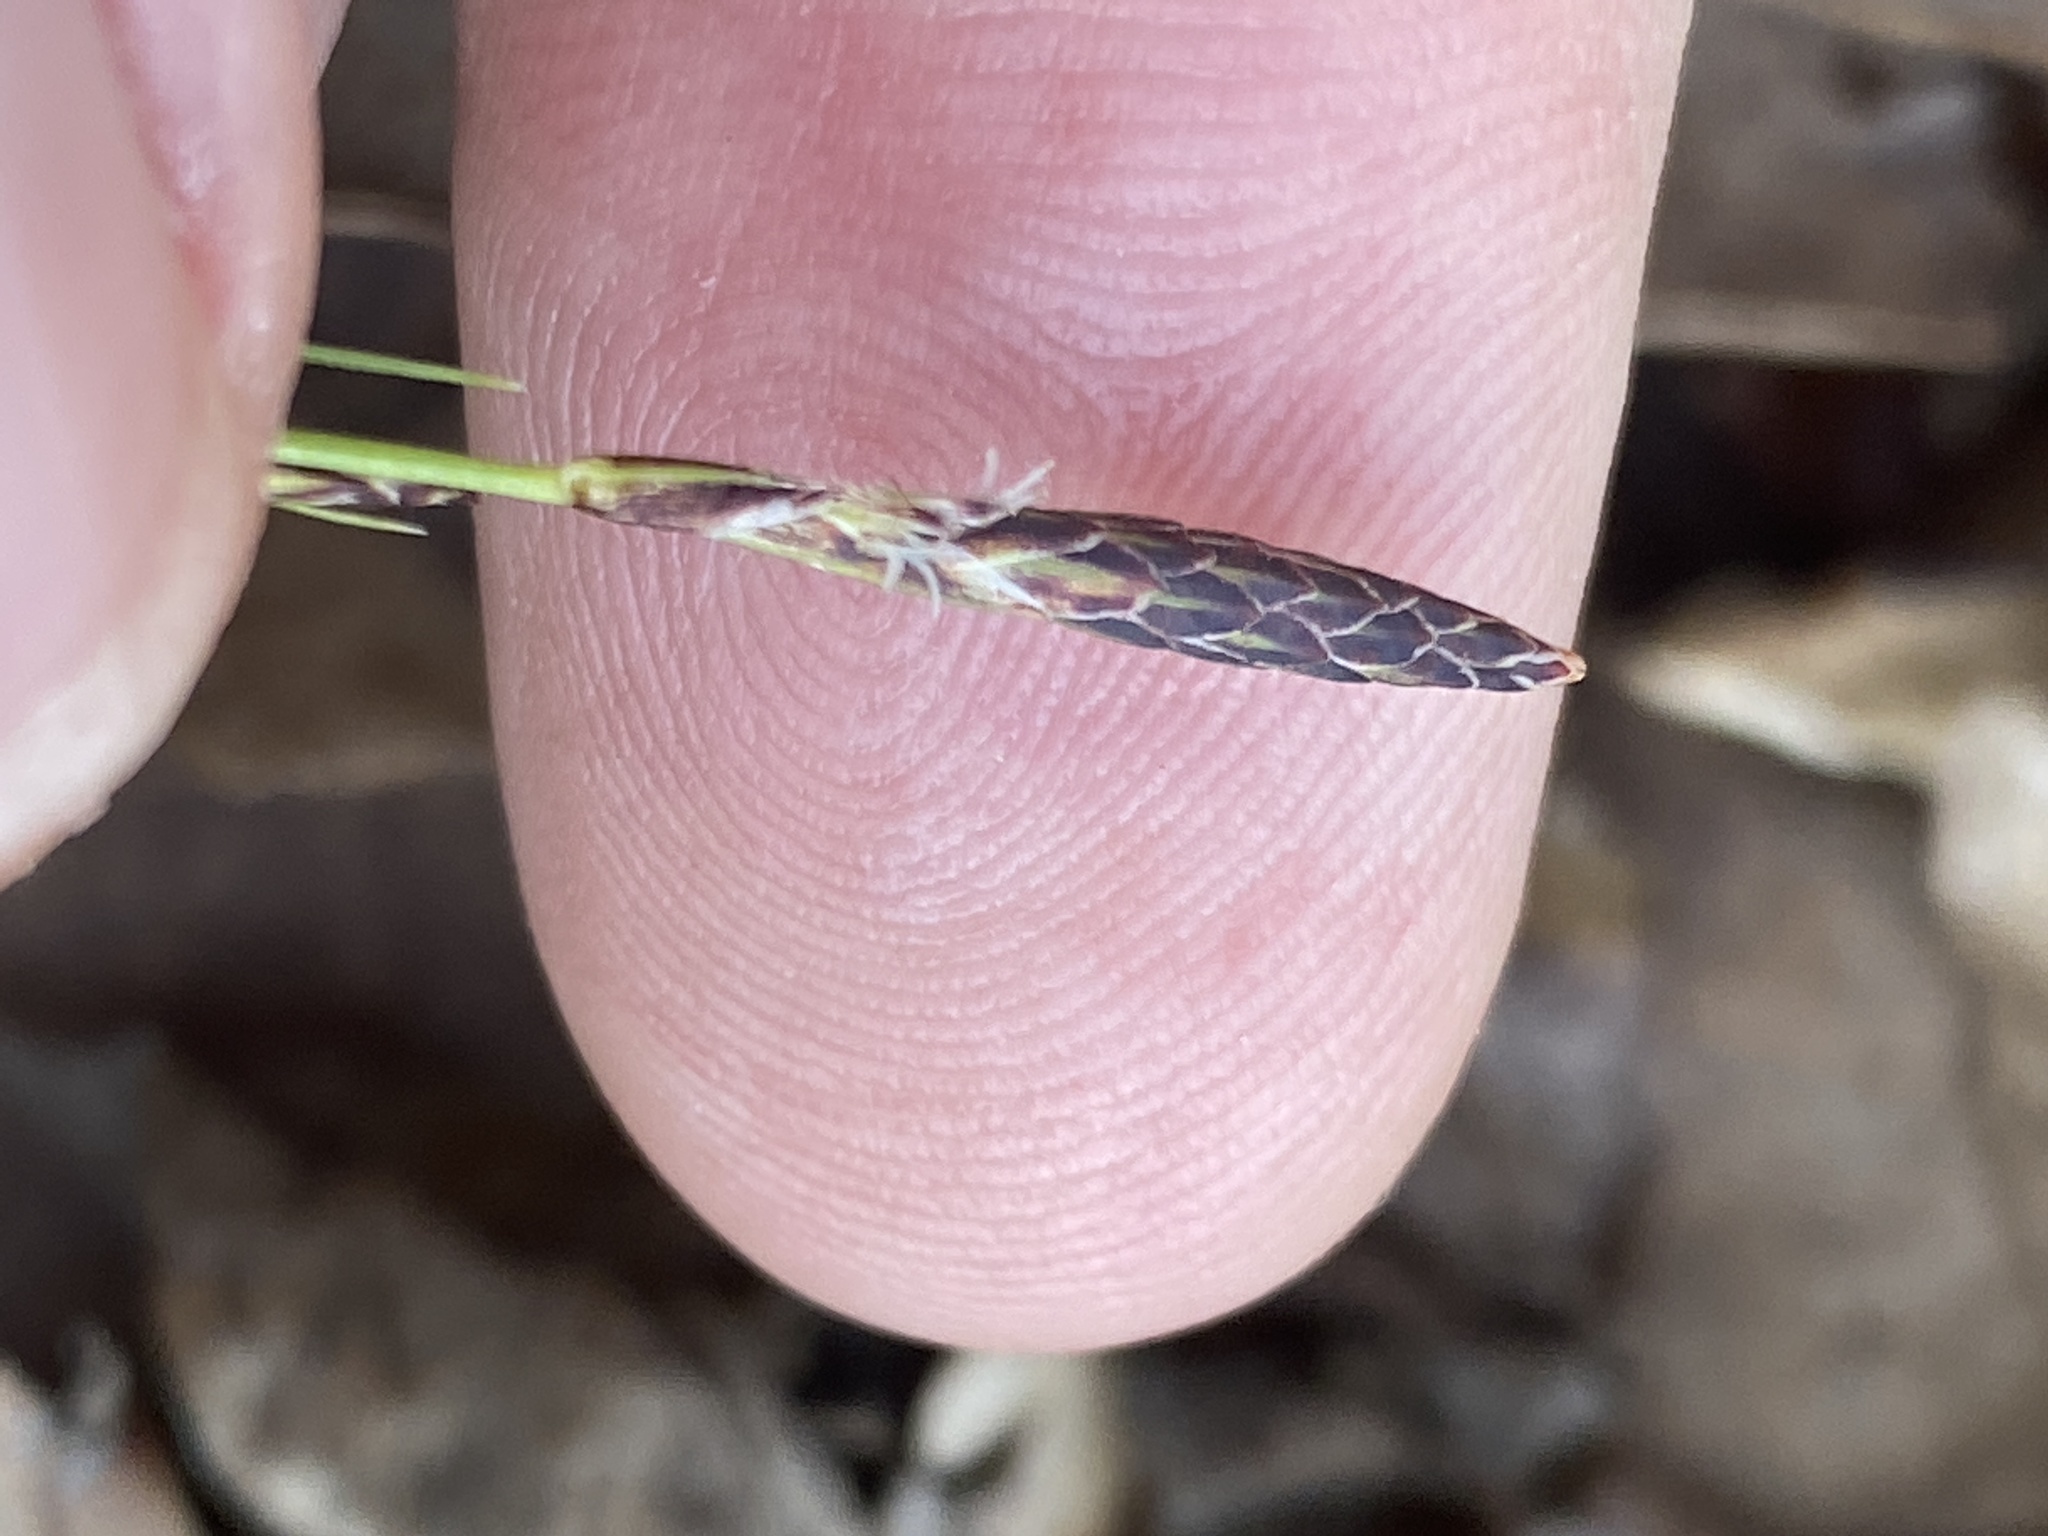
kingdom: Plantae
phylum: Tracheophyta
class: Liliopsida
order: Poales
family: Cyperaceae
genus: Carex
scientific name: Carex pensylvanica
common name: Common oak sedge
